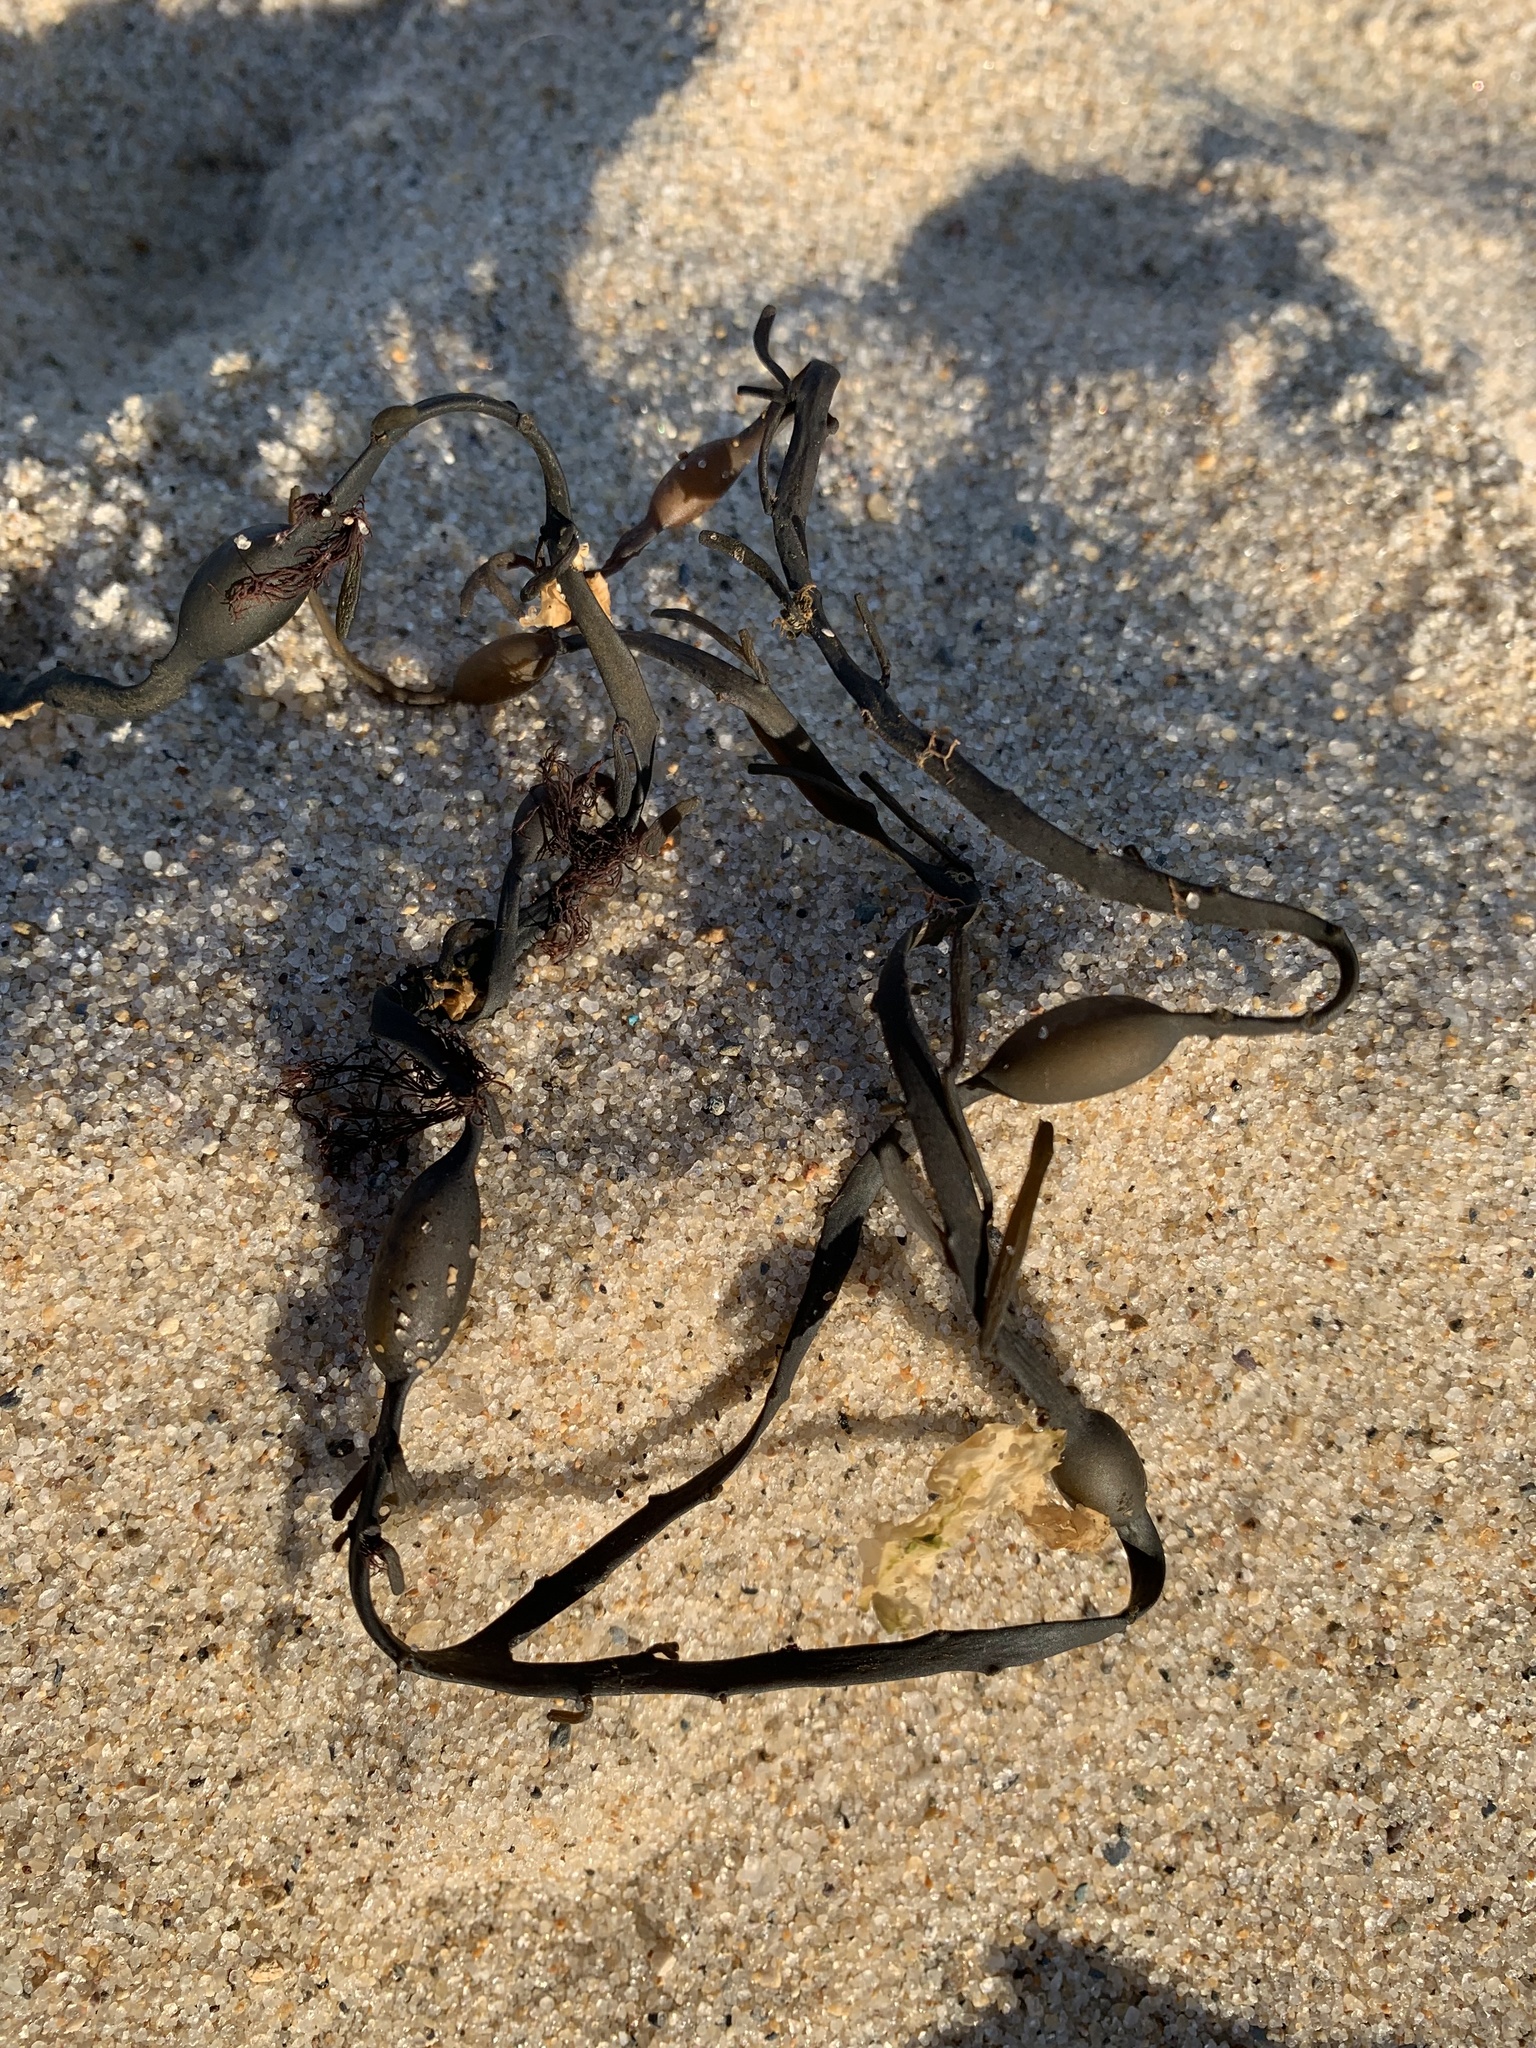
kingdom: Chromista
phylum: Ochrophyta
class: Phaeophyceae
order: Fucales
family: Fucaceae
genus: Ascophyllum
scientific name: Ascophyllum nodosum
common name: Knotted wrack
